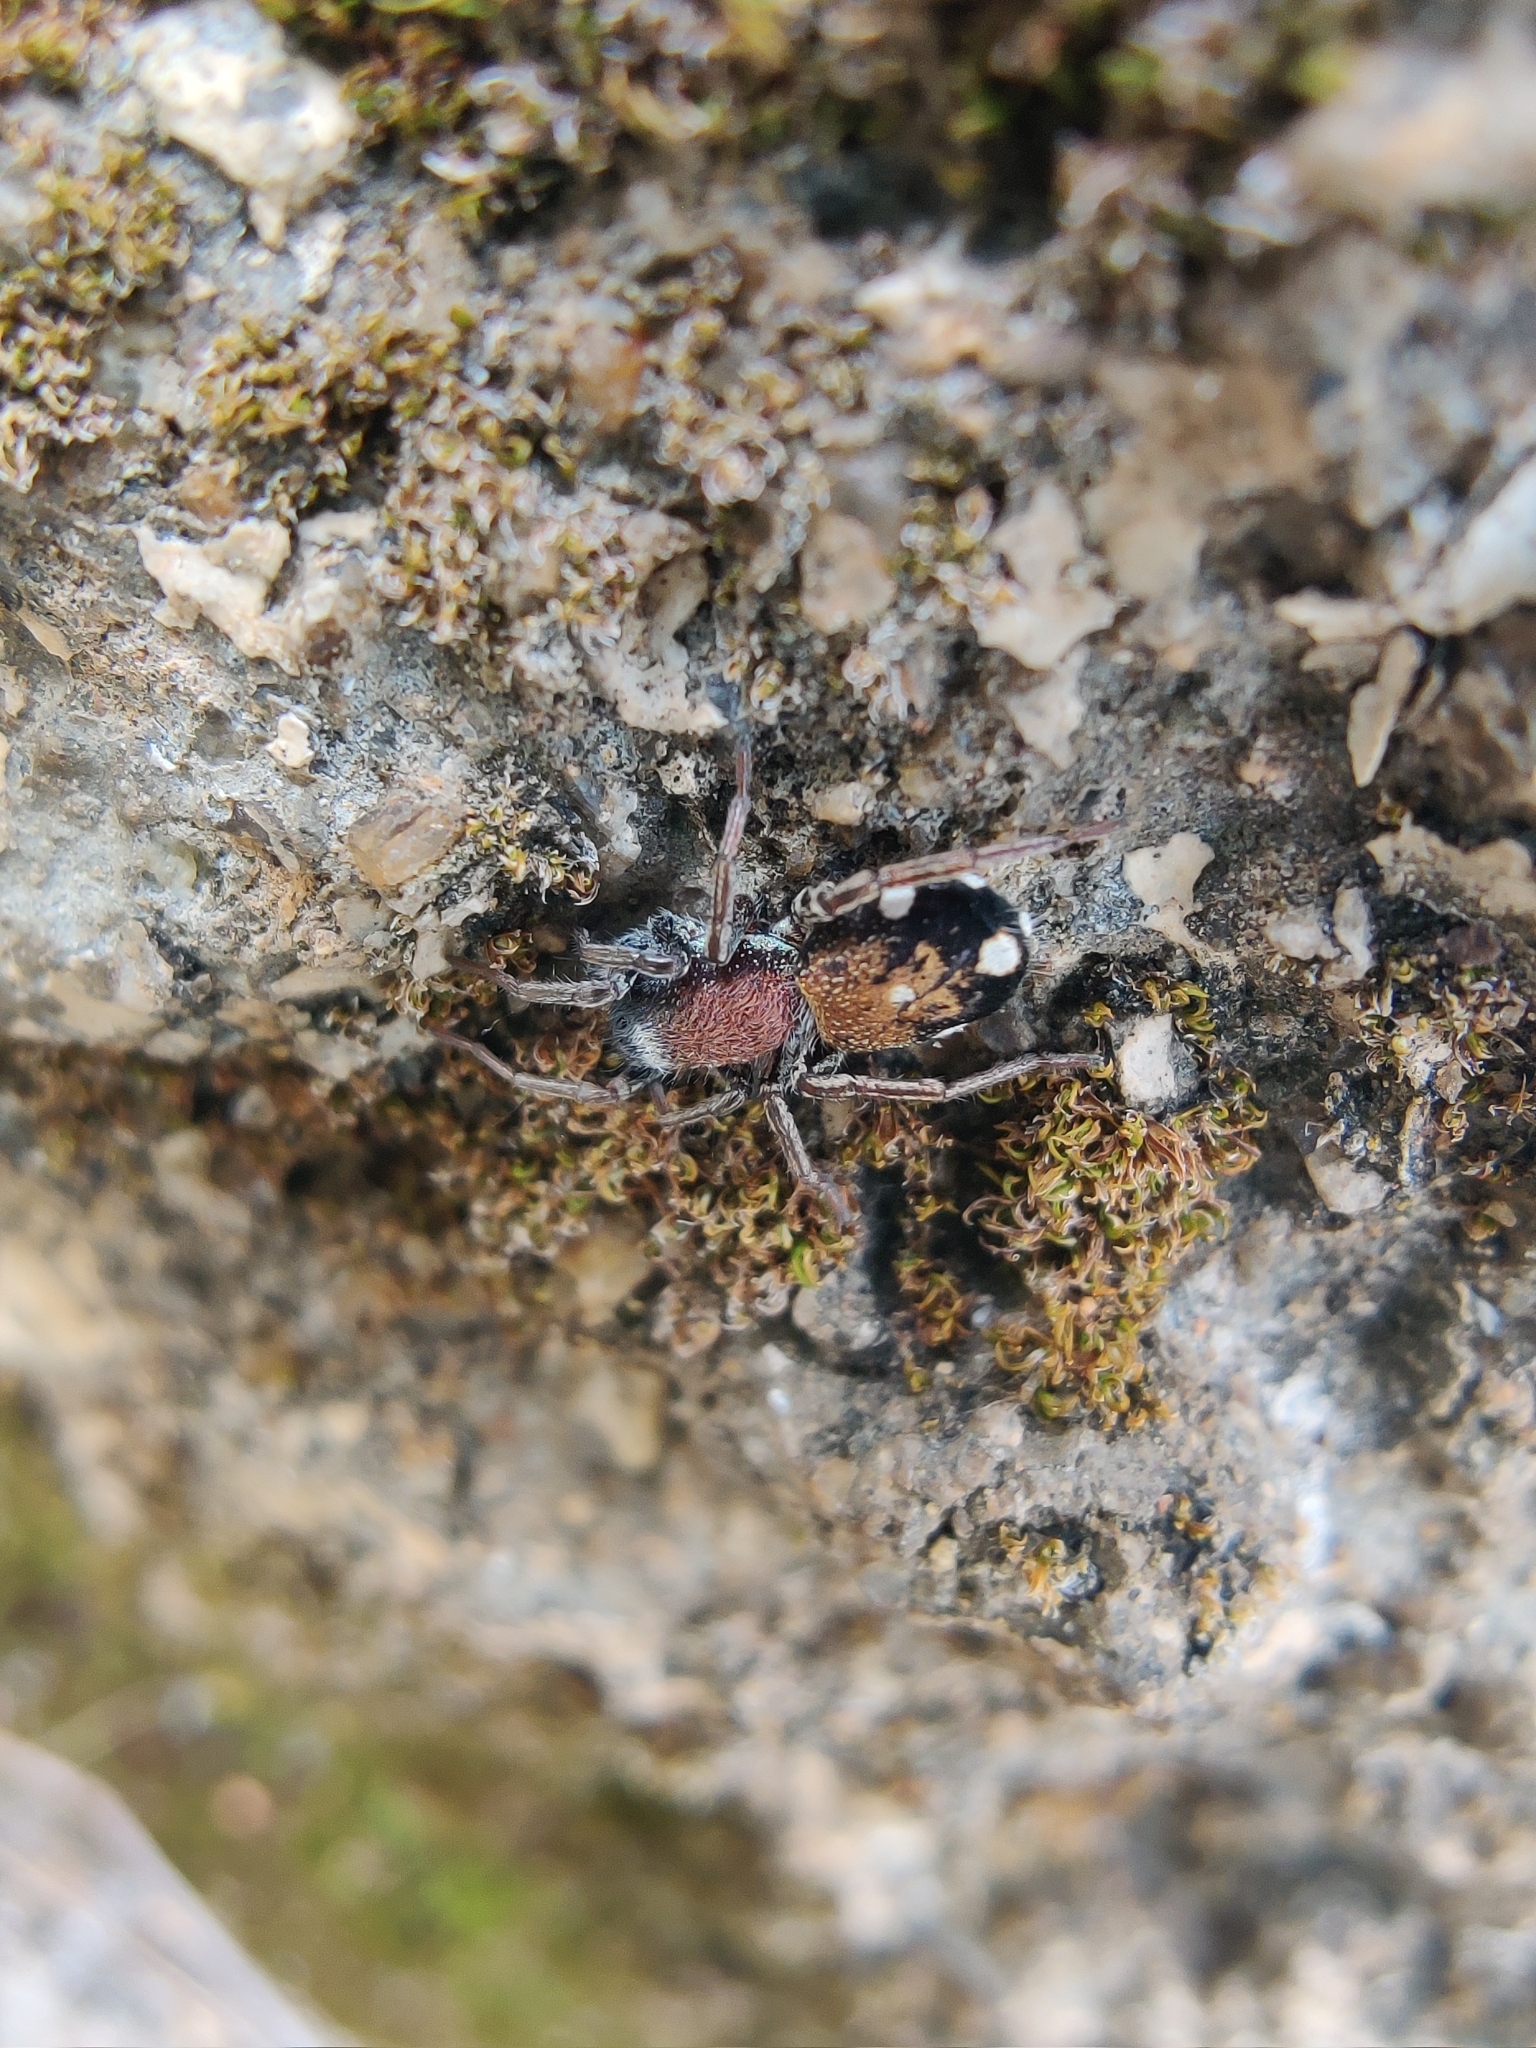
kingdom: Animalia
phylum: Arthropoda
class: Arachnida
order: Araneae
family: Corinnidae
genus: Coenoptychus
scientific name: Coenoptychus pulcher
